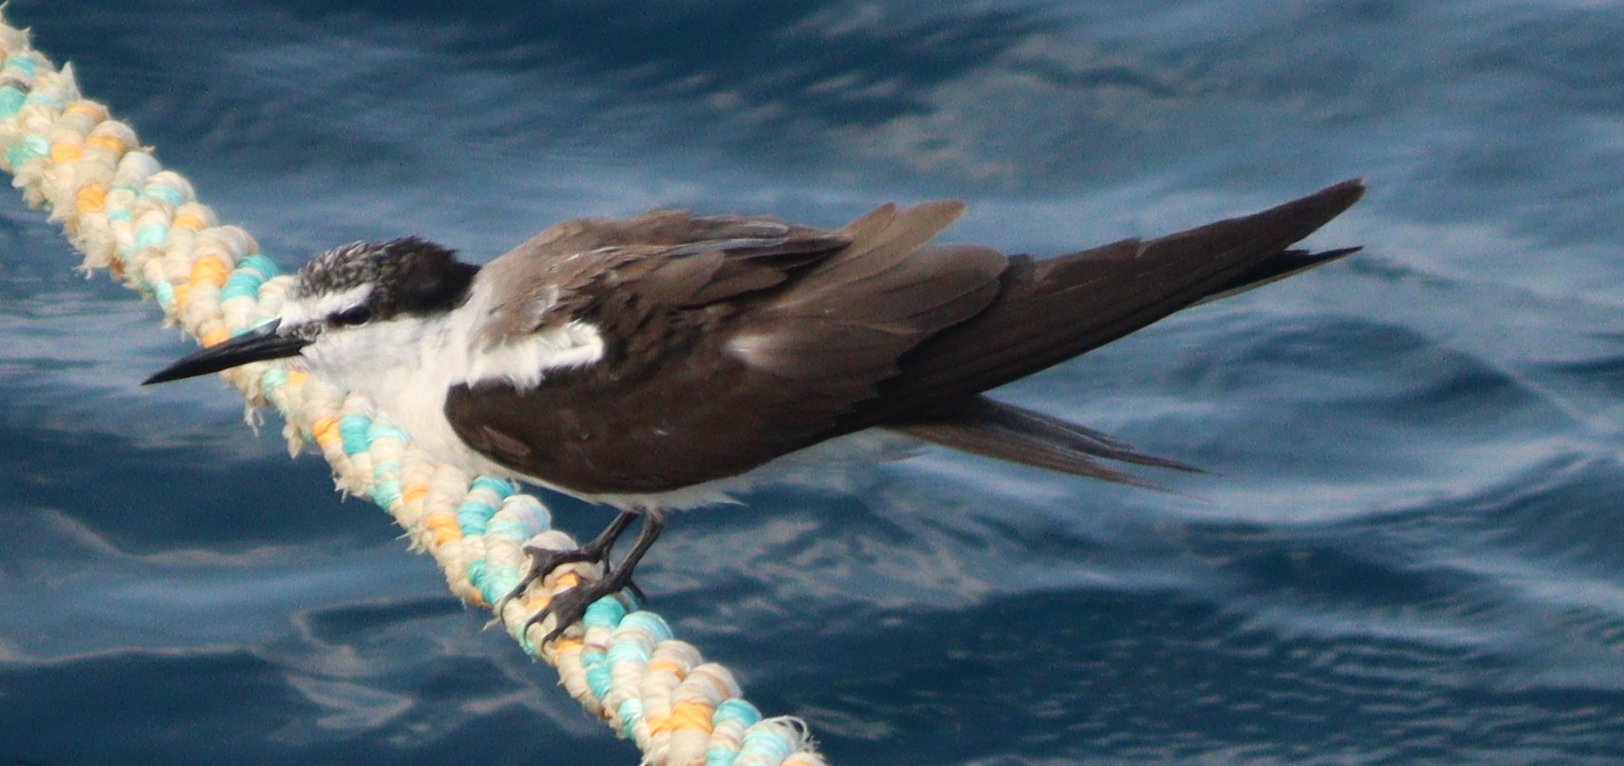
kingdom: Animalia
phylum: Chordata
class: Aves
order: Charadriiformes
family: Laridae
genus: Onychoprion
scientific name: Onychoprion anaethetus
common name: Bridled tern
